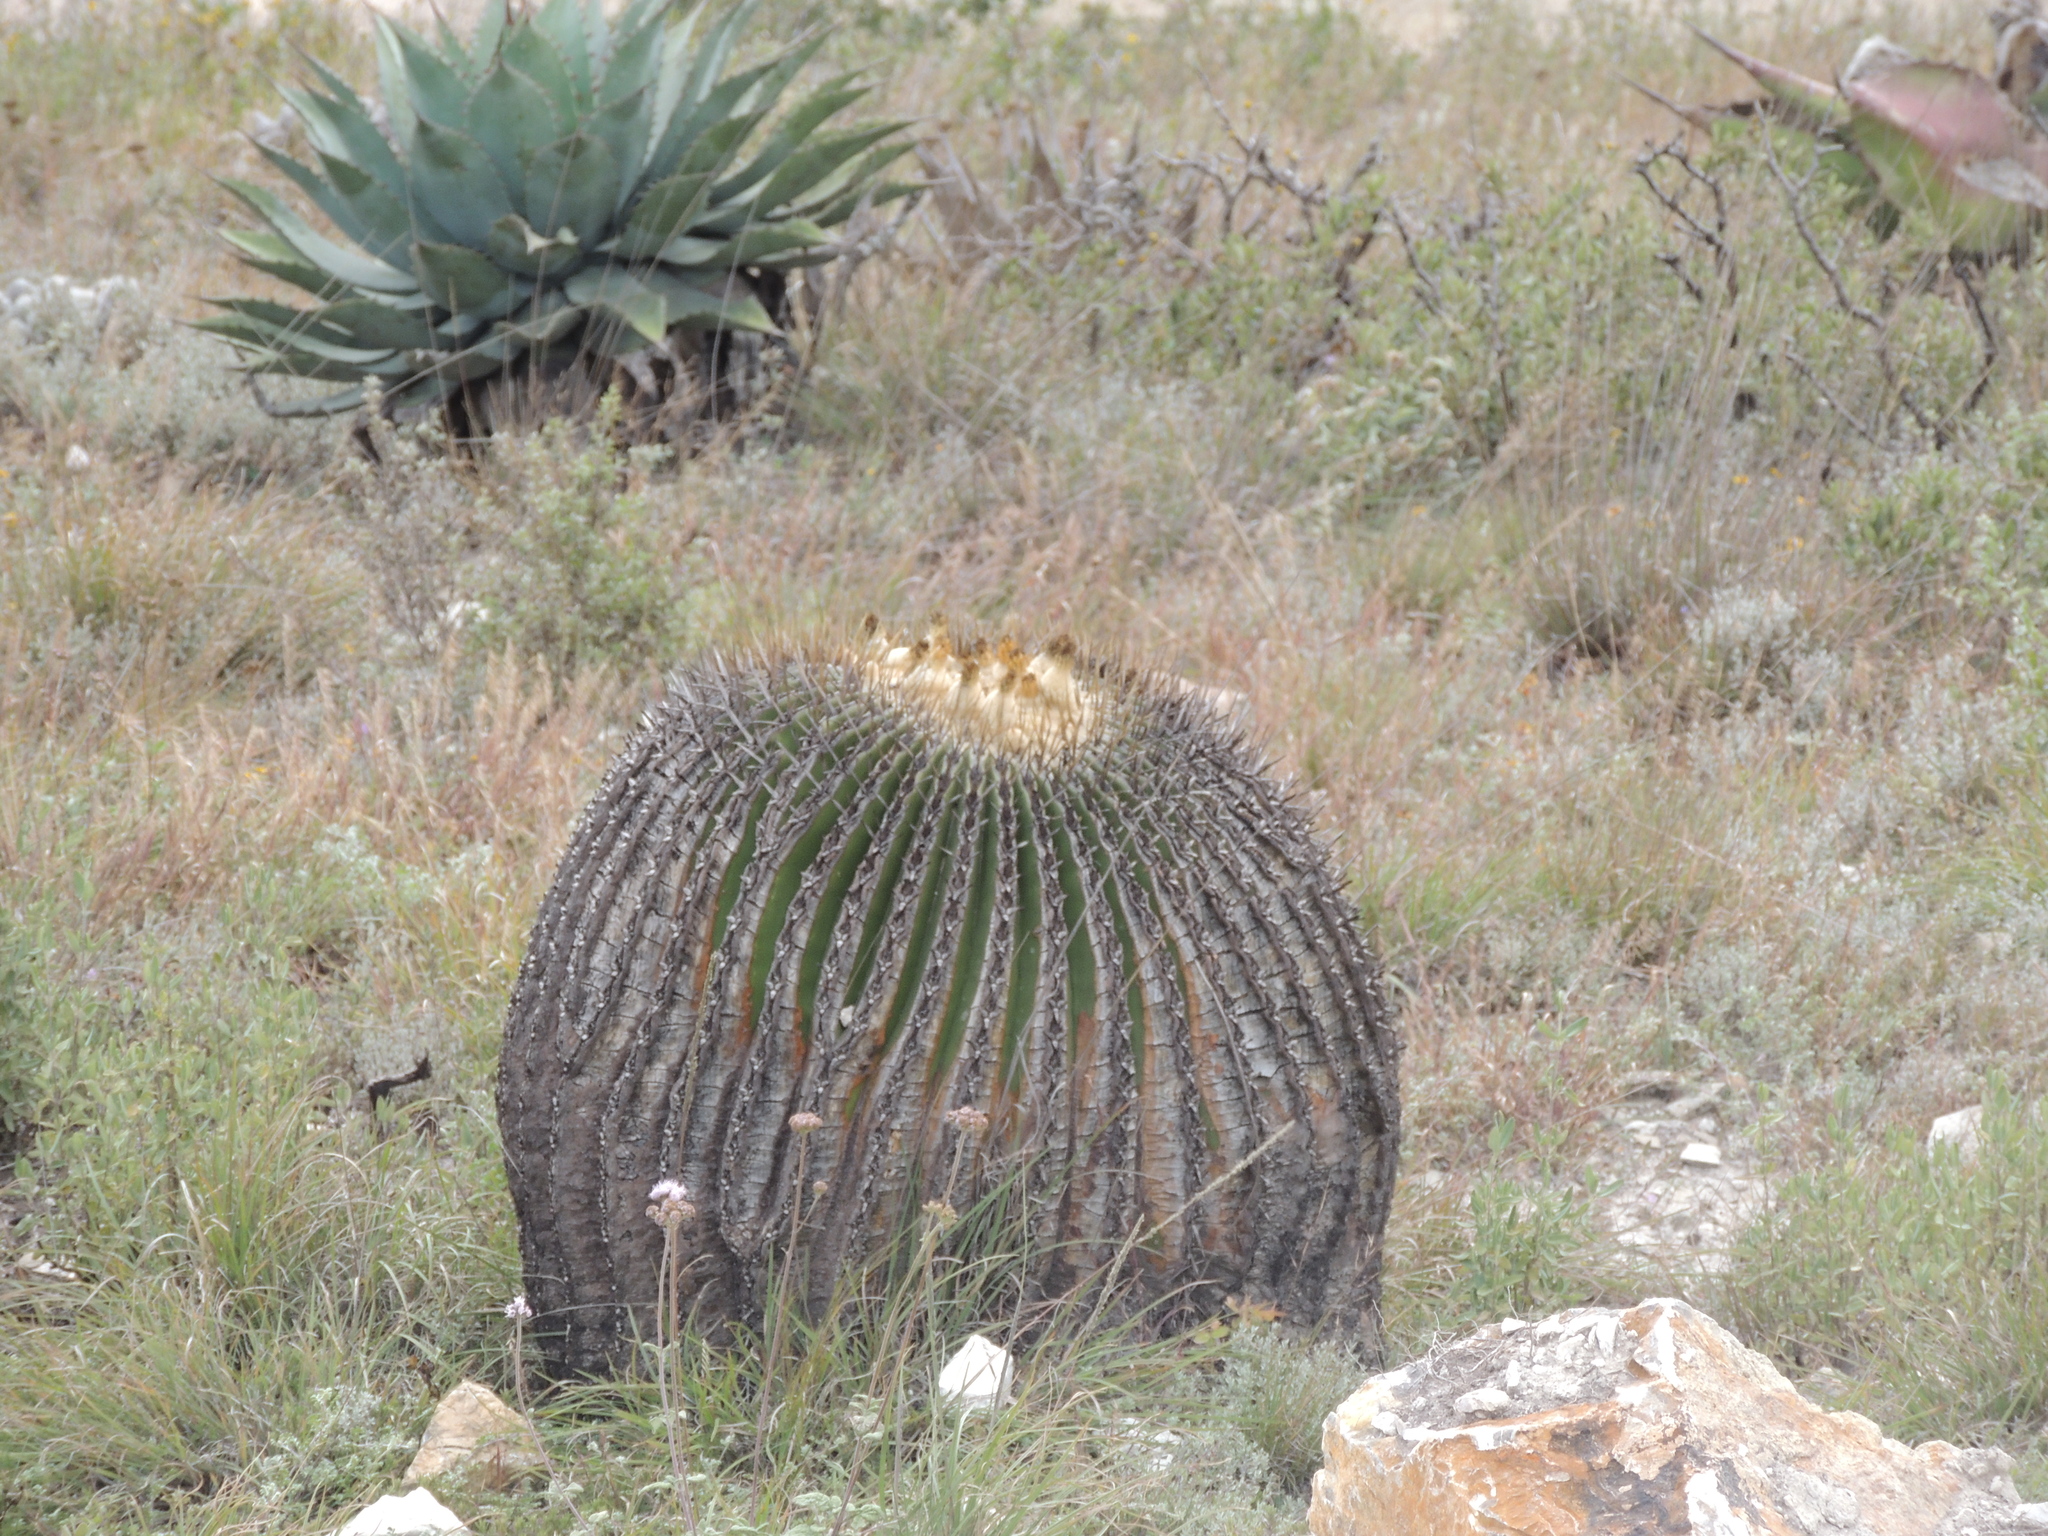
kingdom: Plantae
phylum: Tracheophyta
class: Magnoliopsida
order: Caryophyllales
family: Cactaceae
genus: Echinocactus
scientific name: Echinocactus platyacanthus
